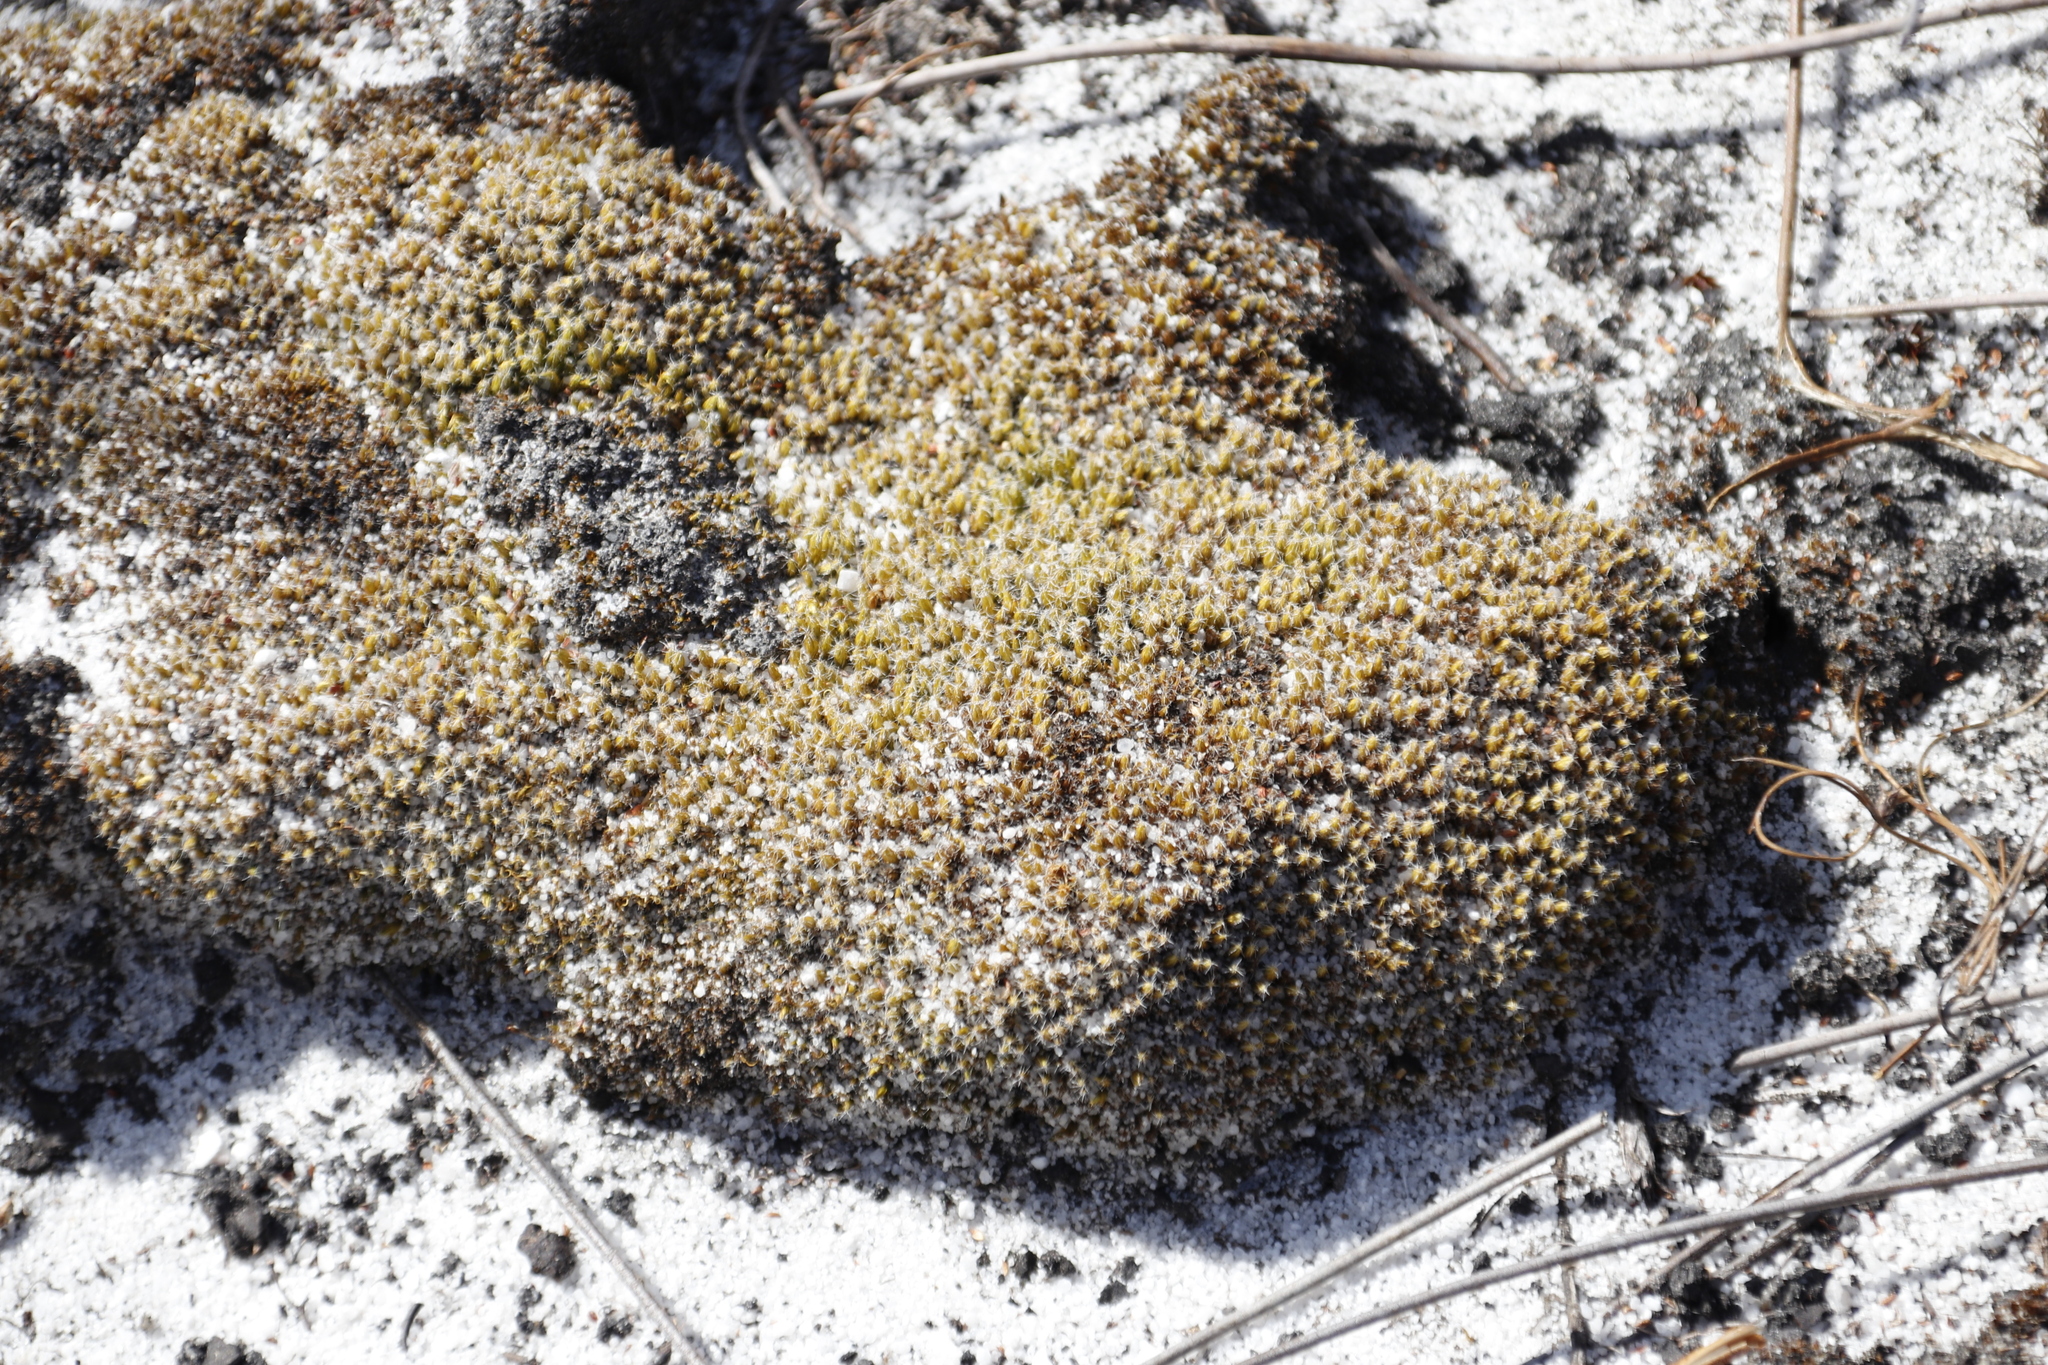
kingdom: Plantae
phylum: Bryophyta
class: Bryopsida
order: Dicranales
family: Leucobryaceae
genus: Campylopus
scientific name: Campylopus introflexus
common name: Heath star moss
